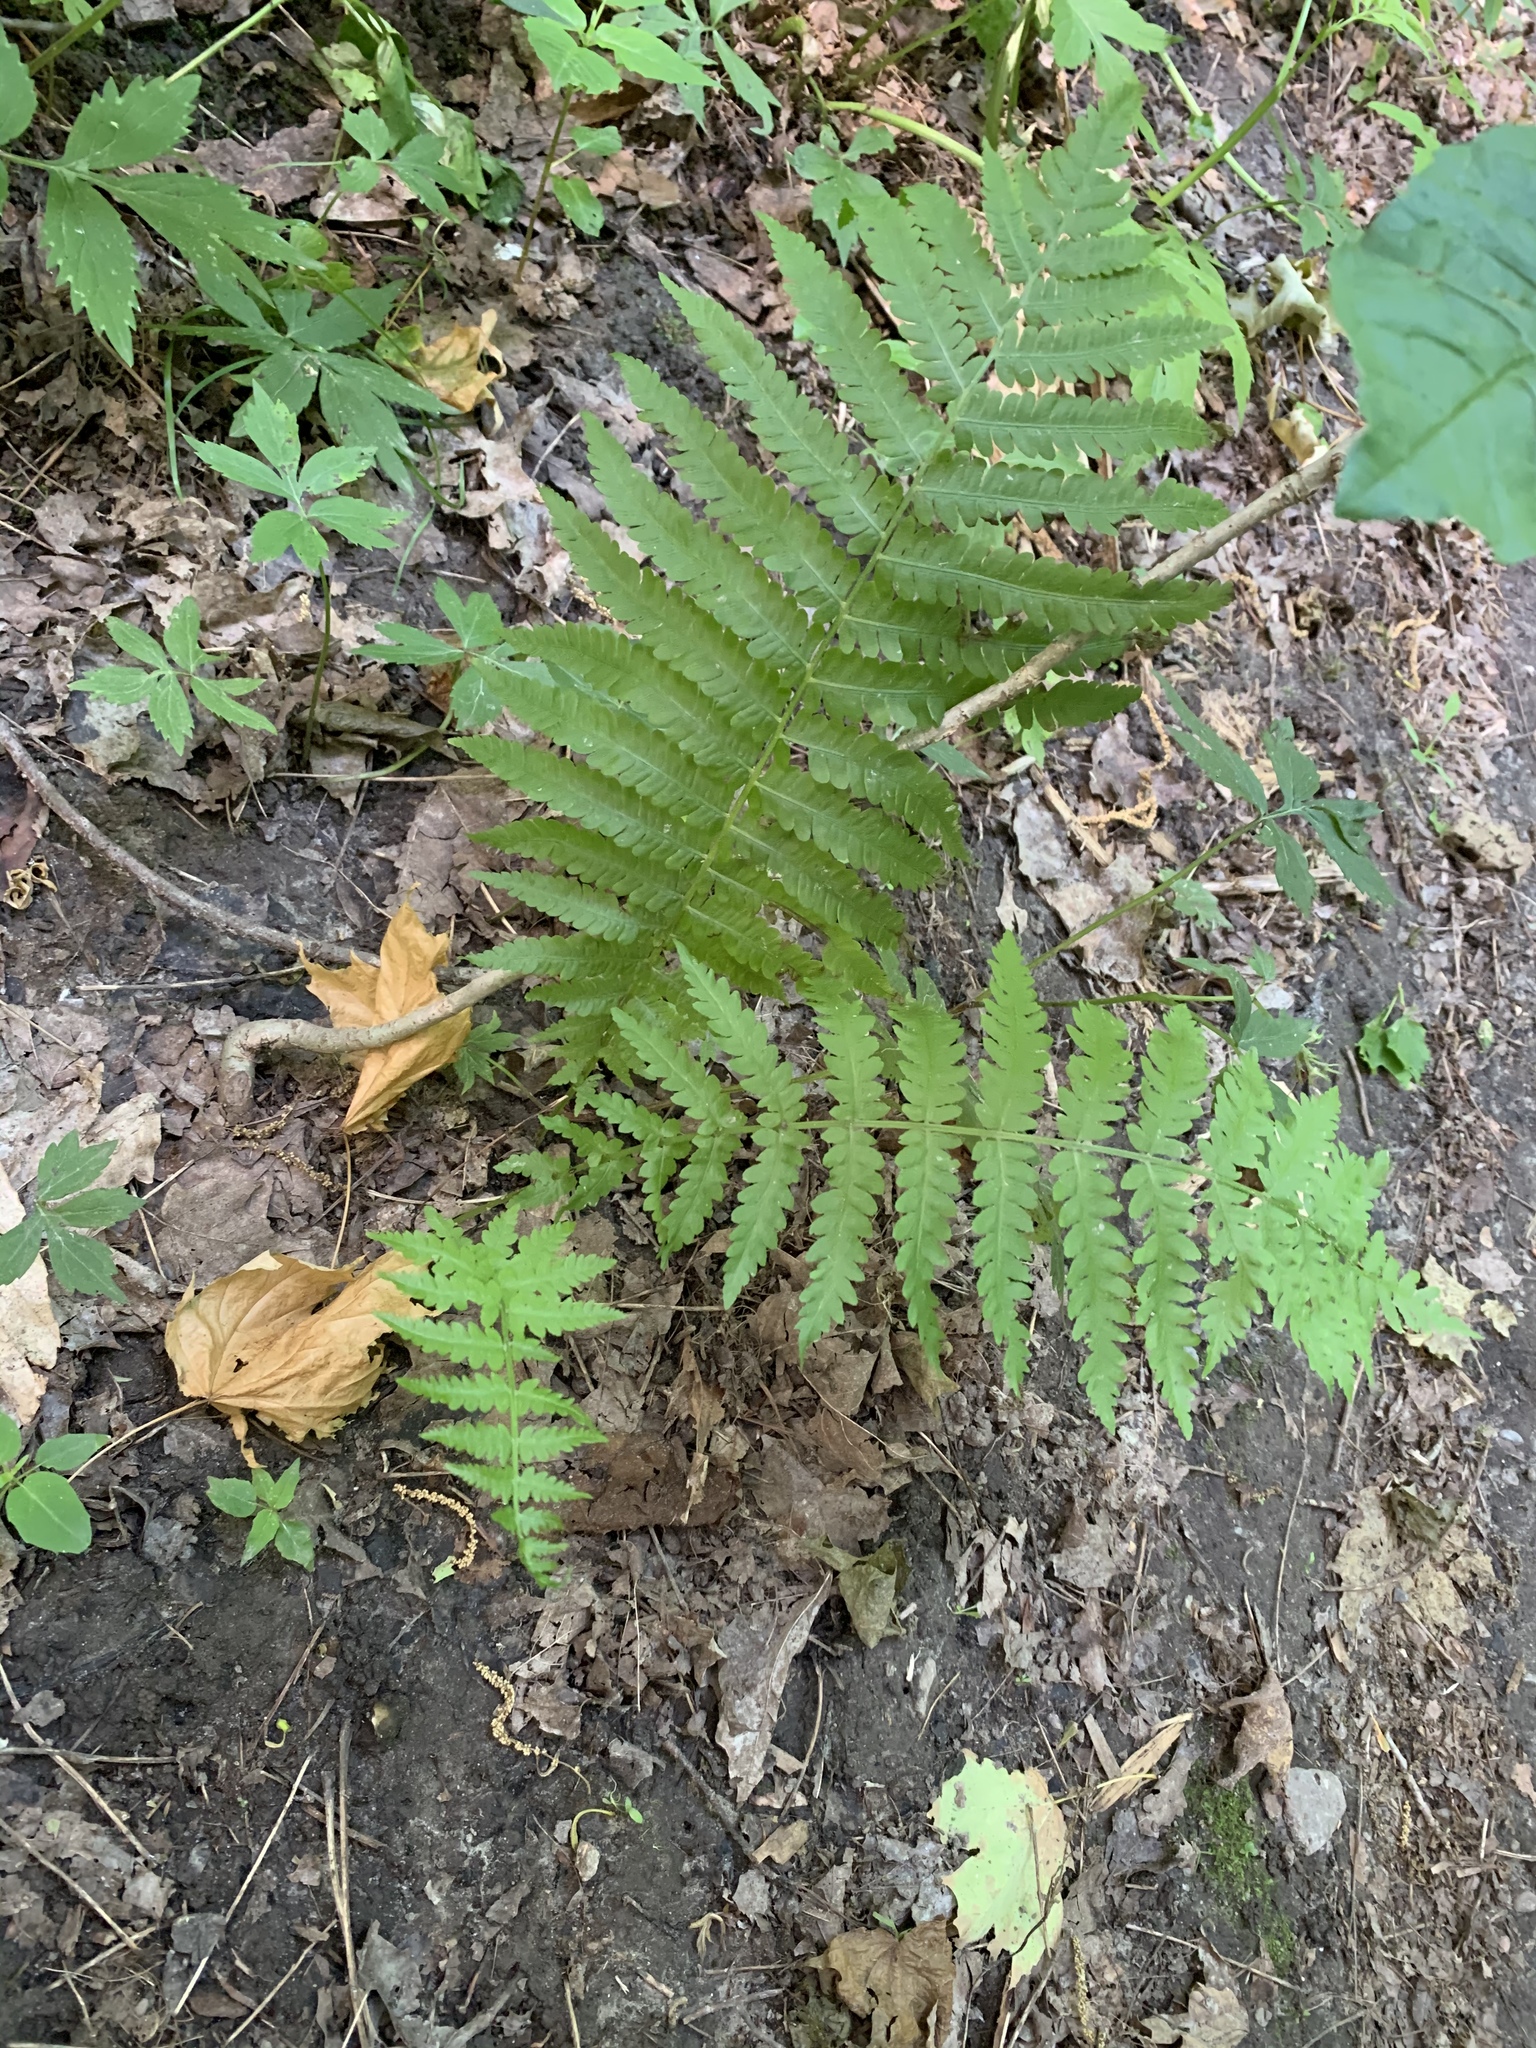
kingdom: Plantae
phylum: Tracheophyta
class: Polypodiopsida
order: Polypodiales
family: Onocleaceae
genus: Matteuccia
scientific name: Matteuccia struthiopteris
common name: Ostrich fern
